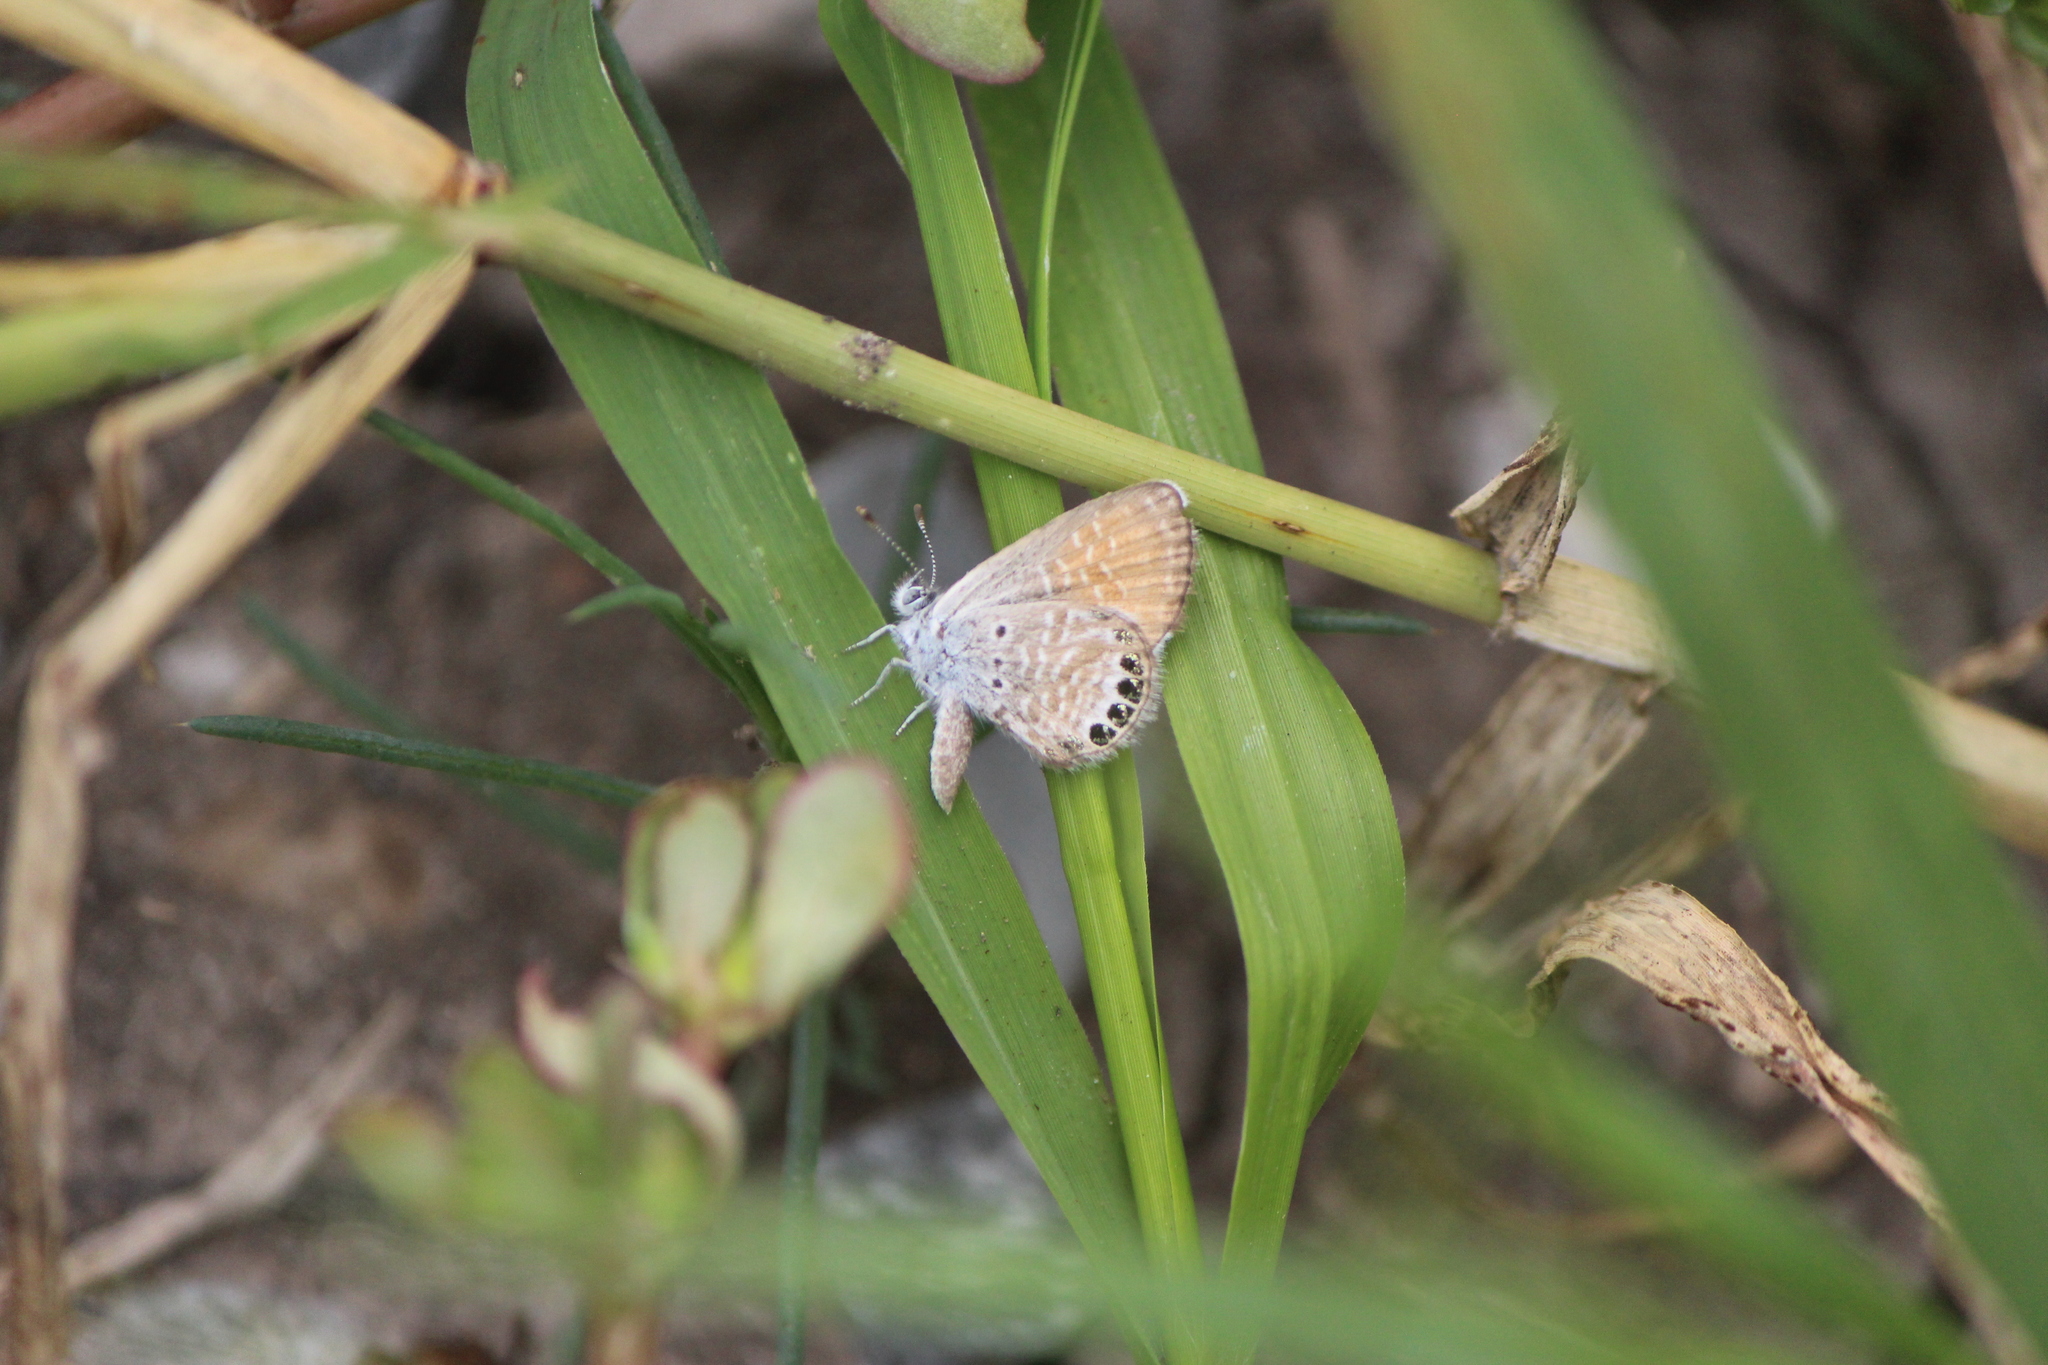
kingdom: Animalia
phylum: Arthropoda
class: Insecta
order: Lepidoptera
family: Lycaenidae
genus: Brephidium
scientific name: Brephidium exilis
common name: Pygmy blue
